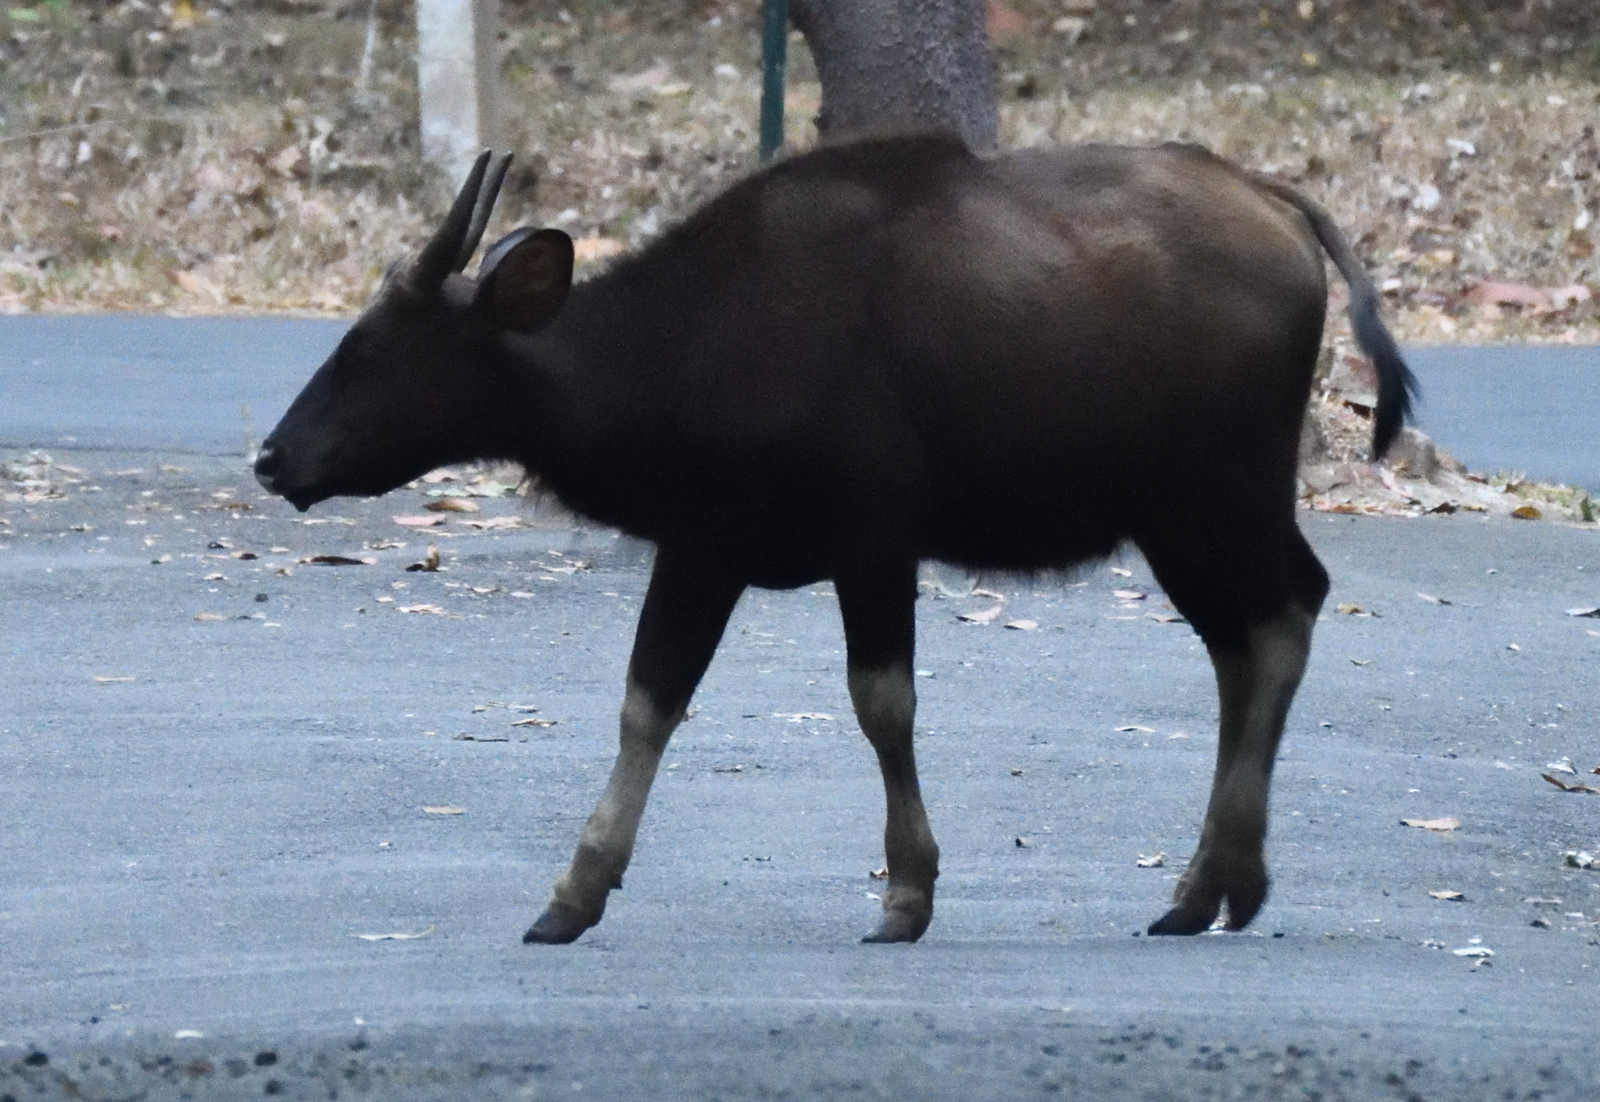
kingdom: Animalia
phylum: Chordata
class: Mammalia
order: Artiodactyla
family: Bovidae
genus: Bos
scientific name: Bos frontalis
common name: Gaur
